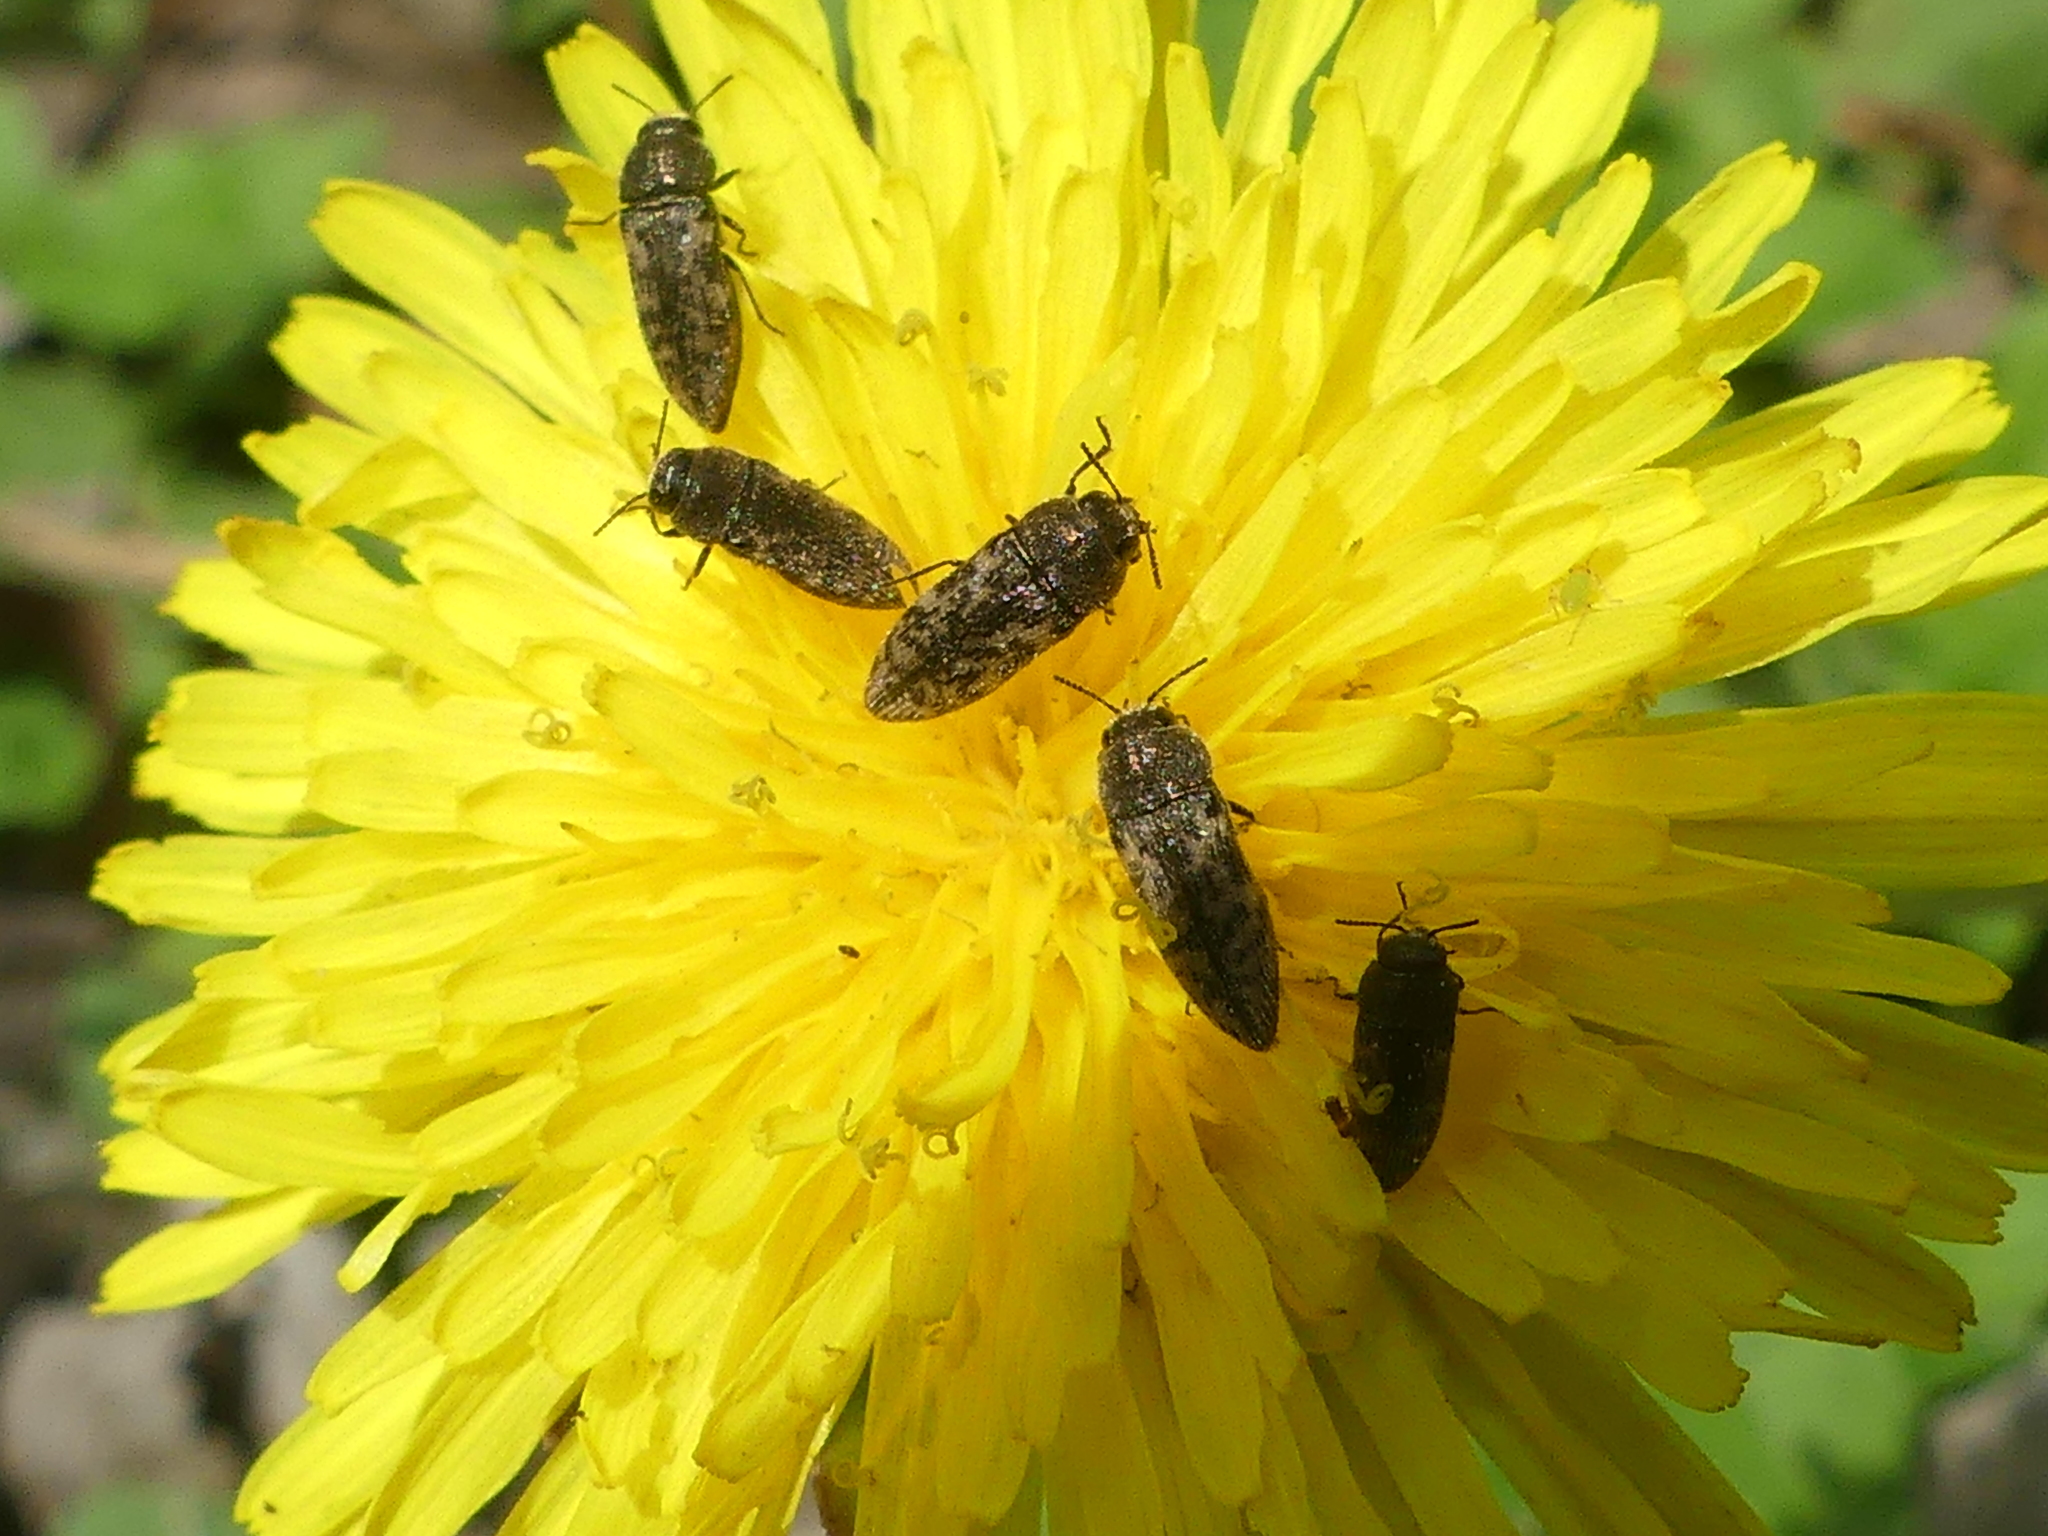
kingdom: Animalia
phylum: Arthropoda
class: Insecta
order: Coleoptera
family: Buprestidae
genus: Acmaeodera
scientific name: Acmaeodera neglecta
